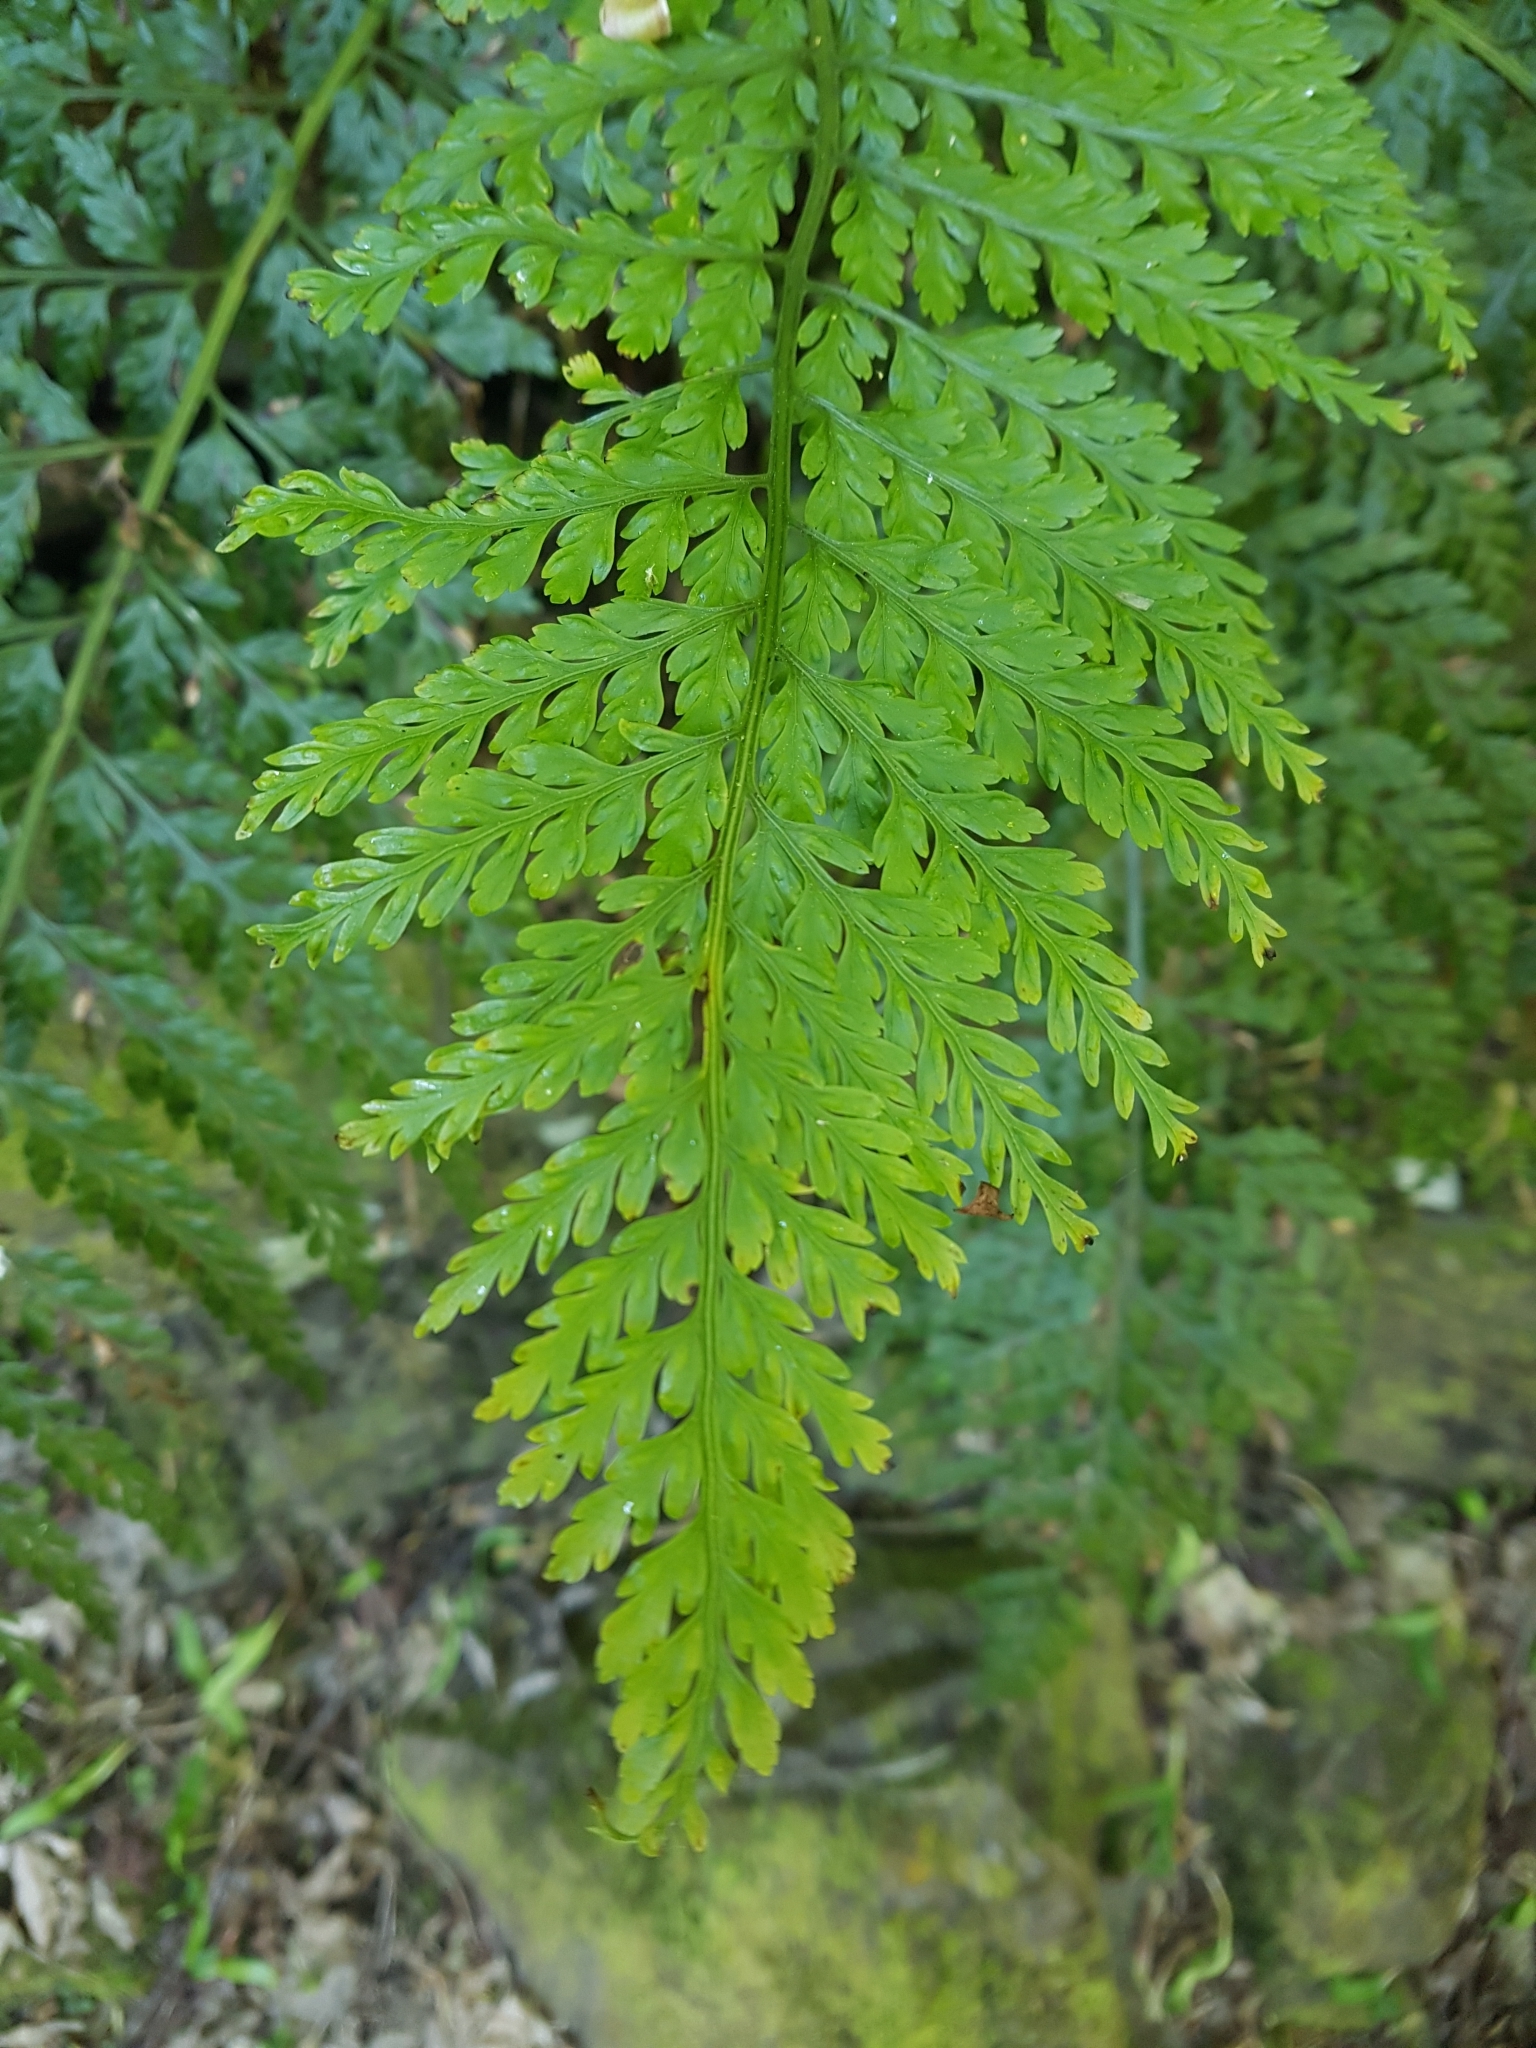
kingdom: Plantae
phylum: Tracheophyta
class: Polypodiopsida
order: Polypodiales
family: Aspleniaceae
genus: Asplenium
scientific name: Asplenium
